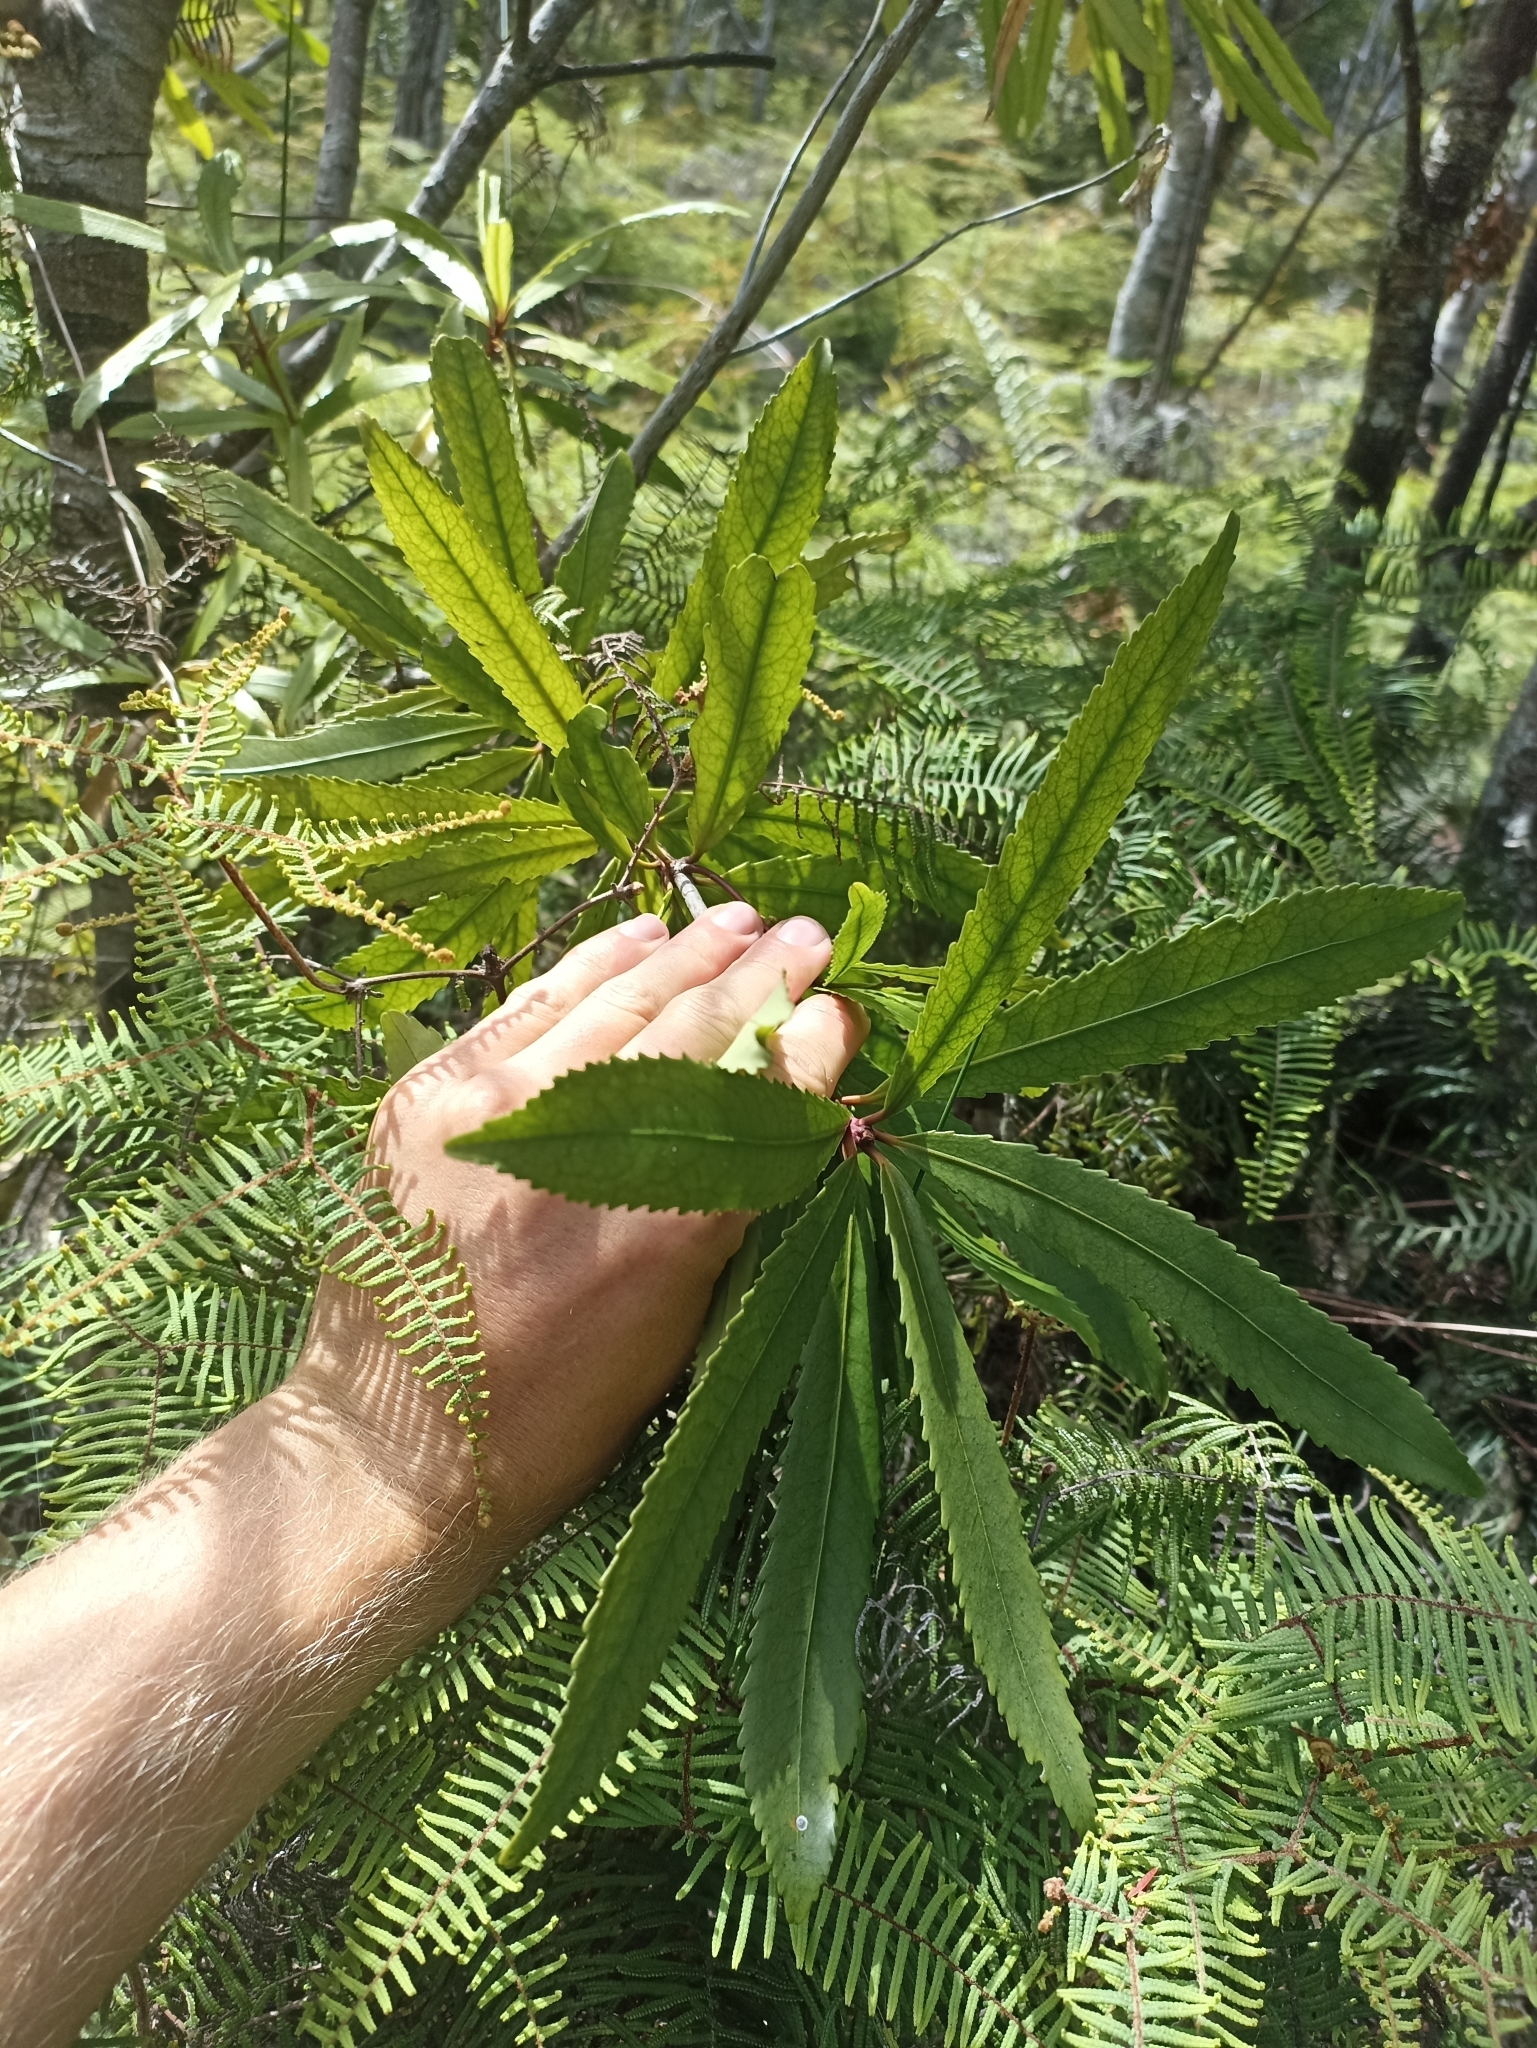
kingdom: Plantae
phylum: Tracheophyta
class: Magnoliopsida
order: Crossosomatales
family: Ixerbaceae
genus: Ixerba
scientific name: Ixerba brexioides
